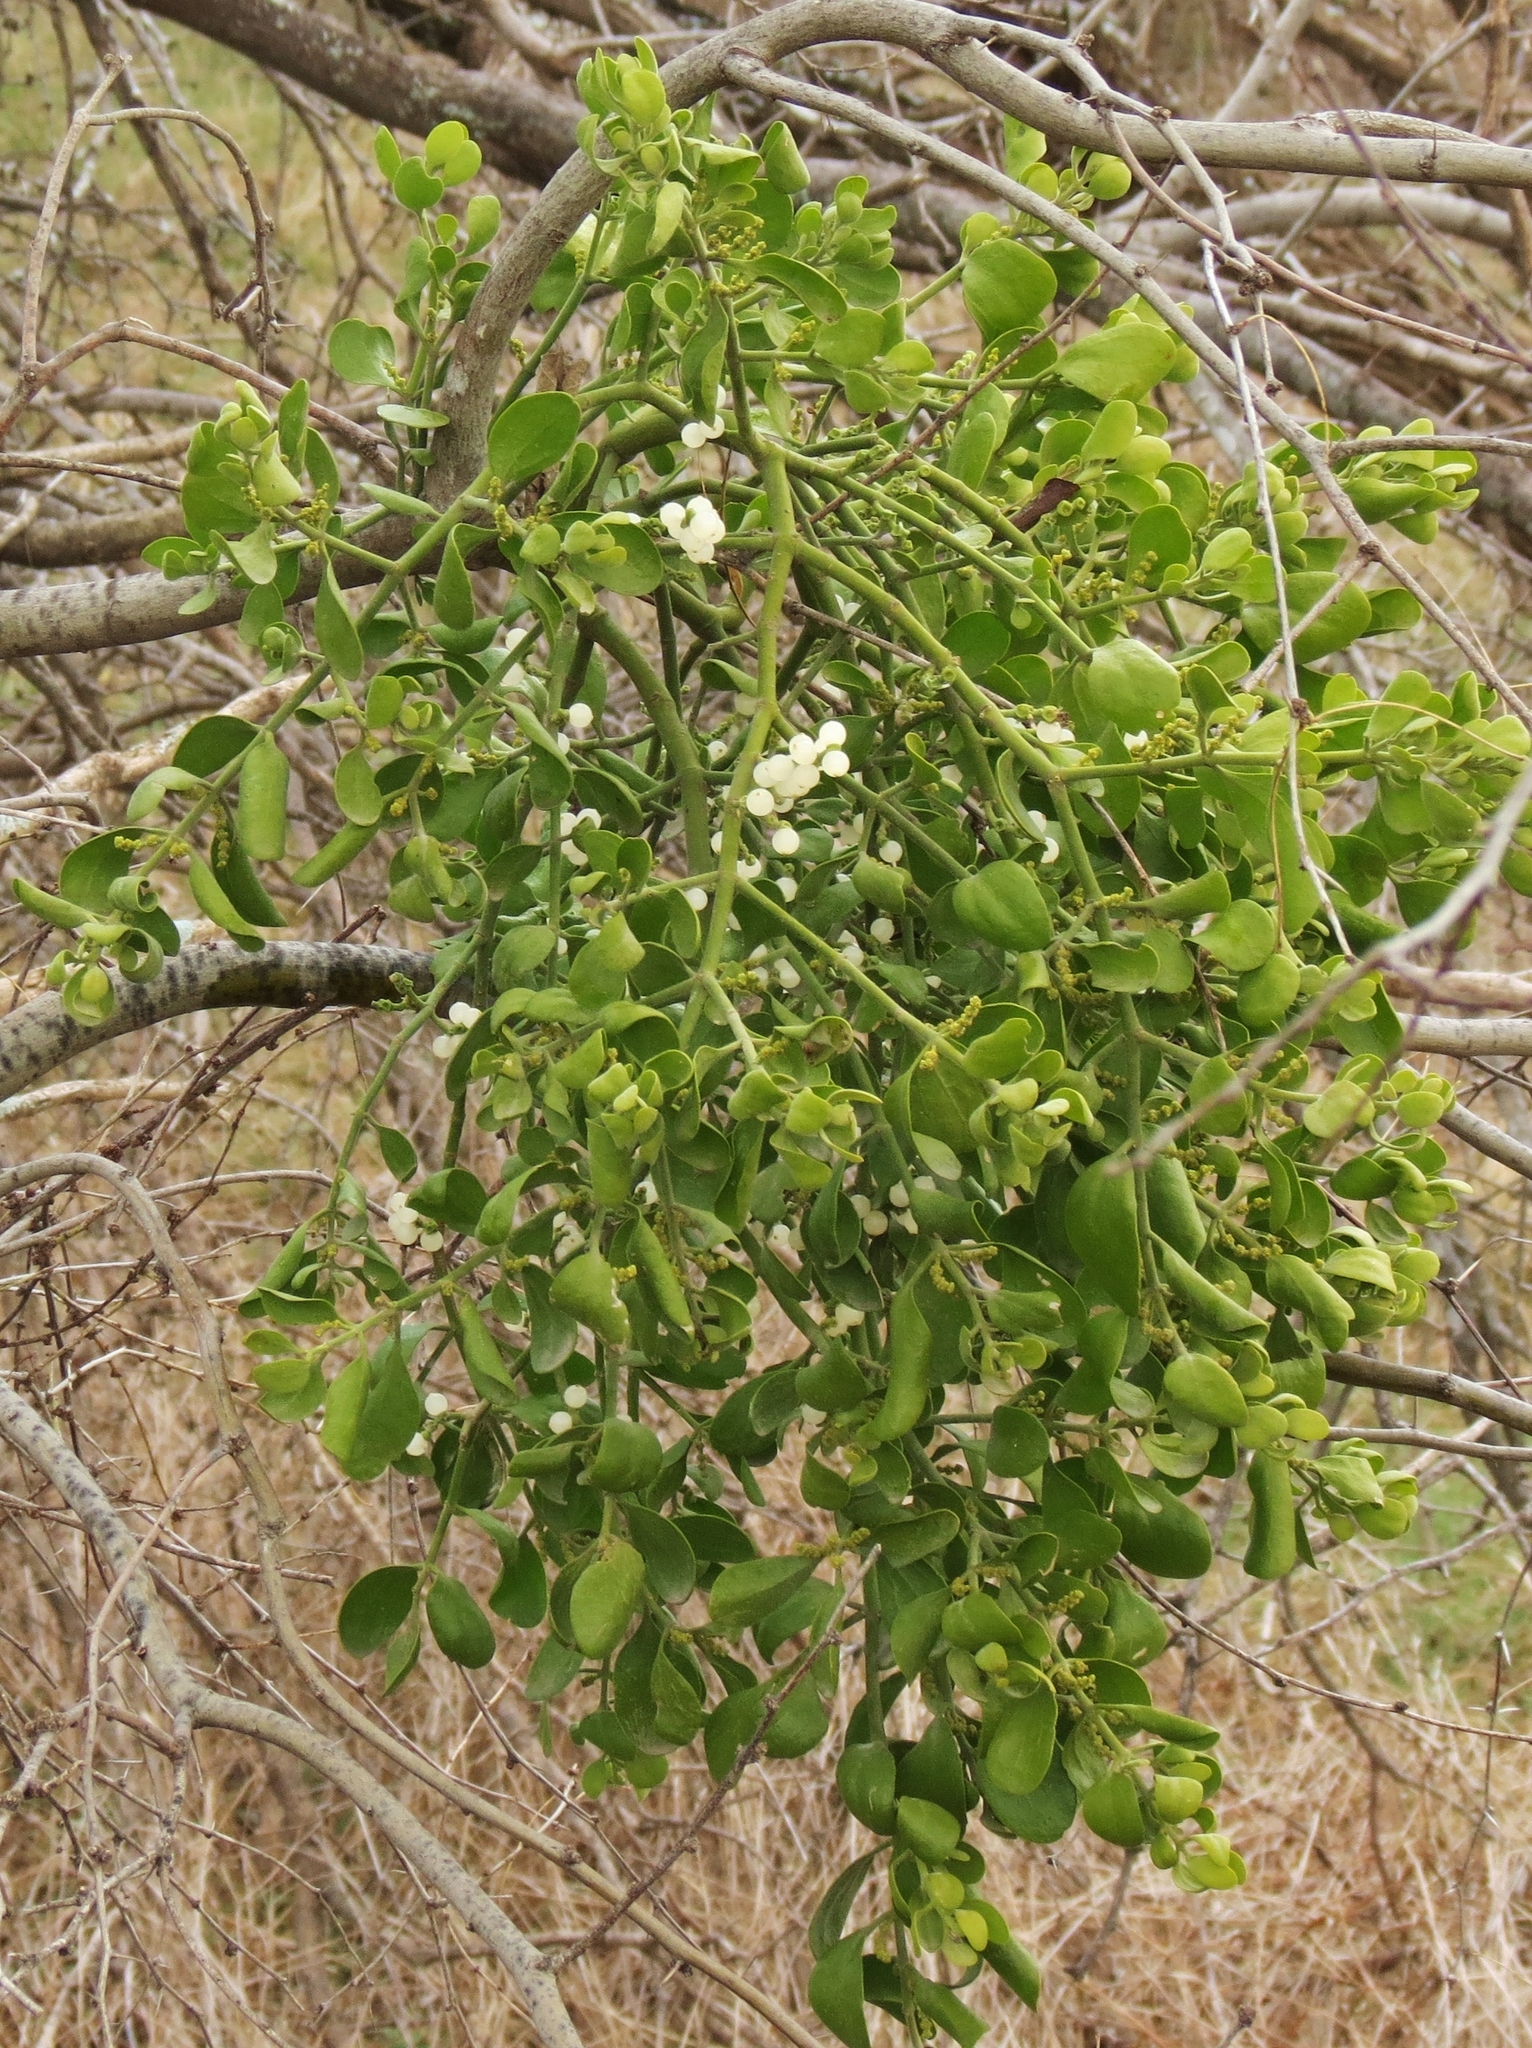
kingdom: Plantae
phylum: Tracheophyta
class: Magnoliopsida
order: Santalales
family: Viscaceae
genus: Phoradendron
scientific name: Phoradendron leucarpum
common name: Pacific mistletoe
